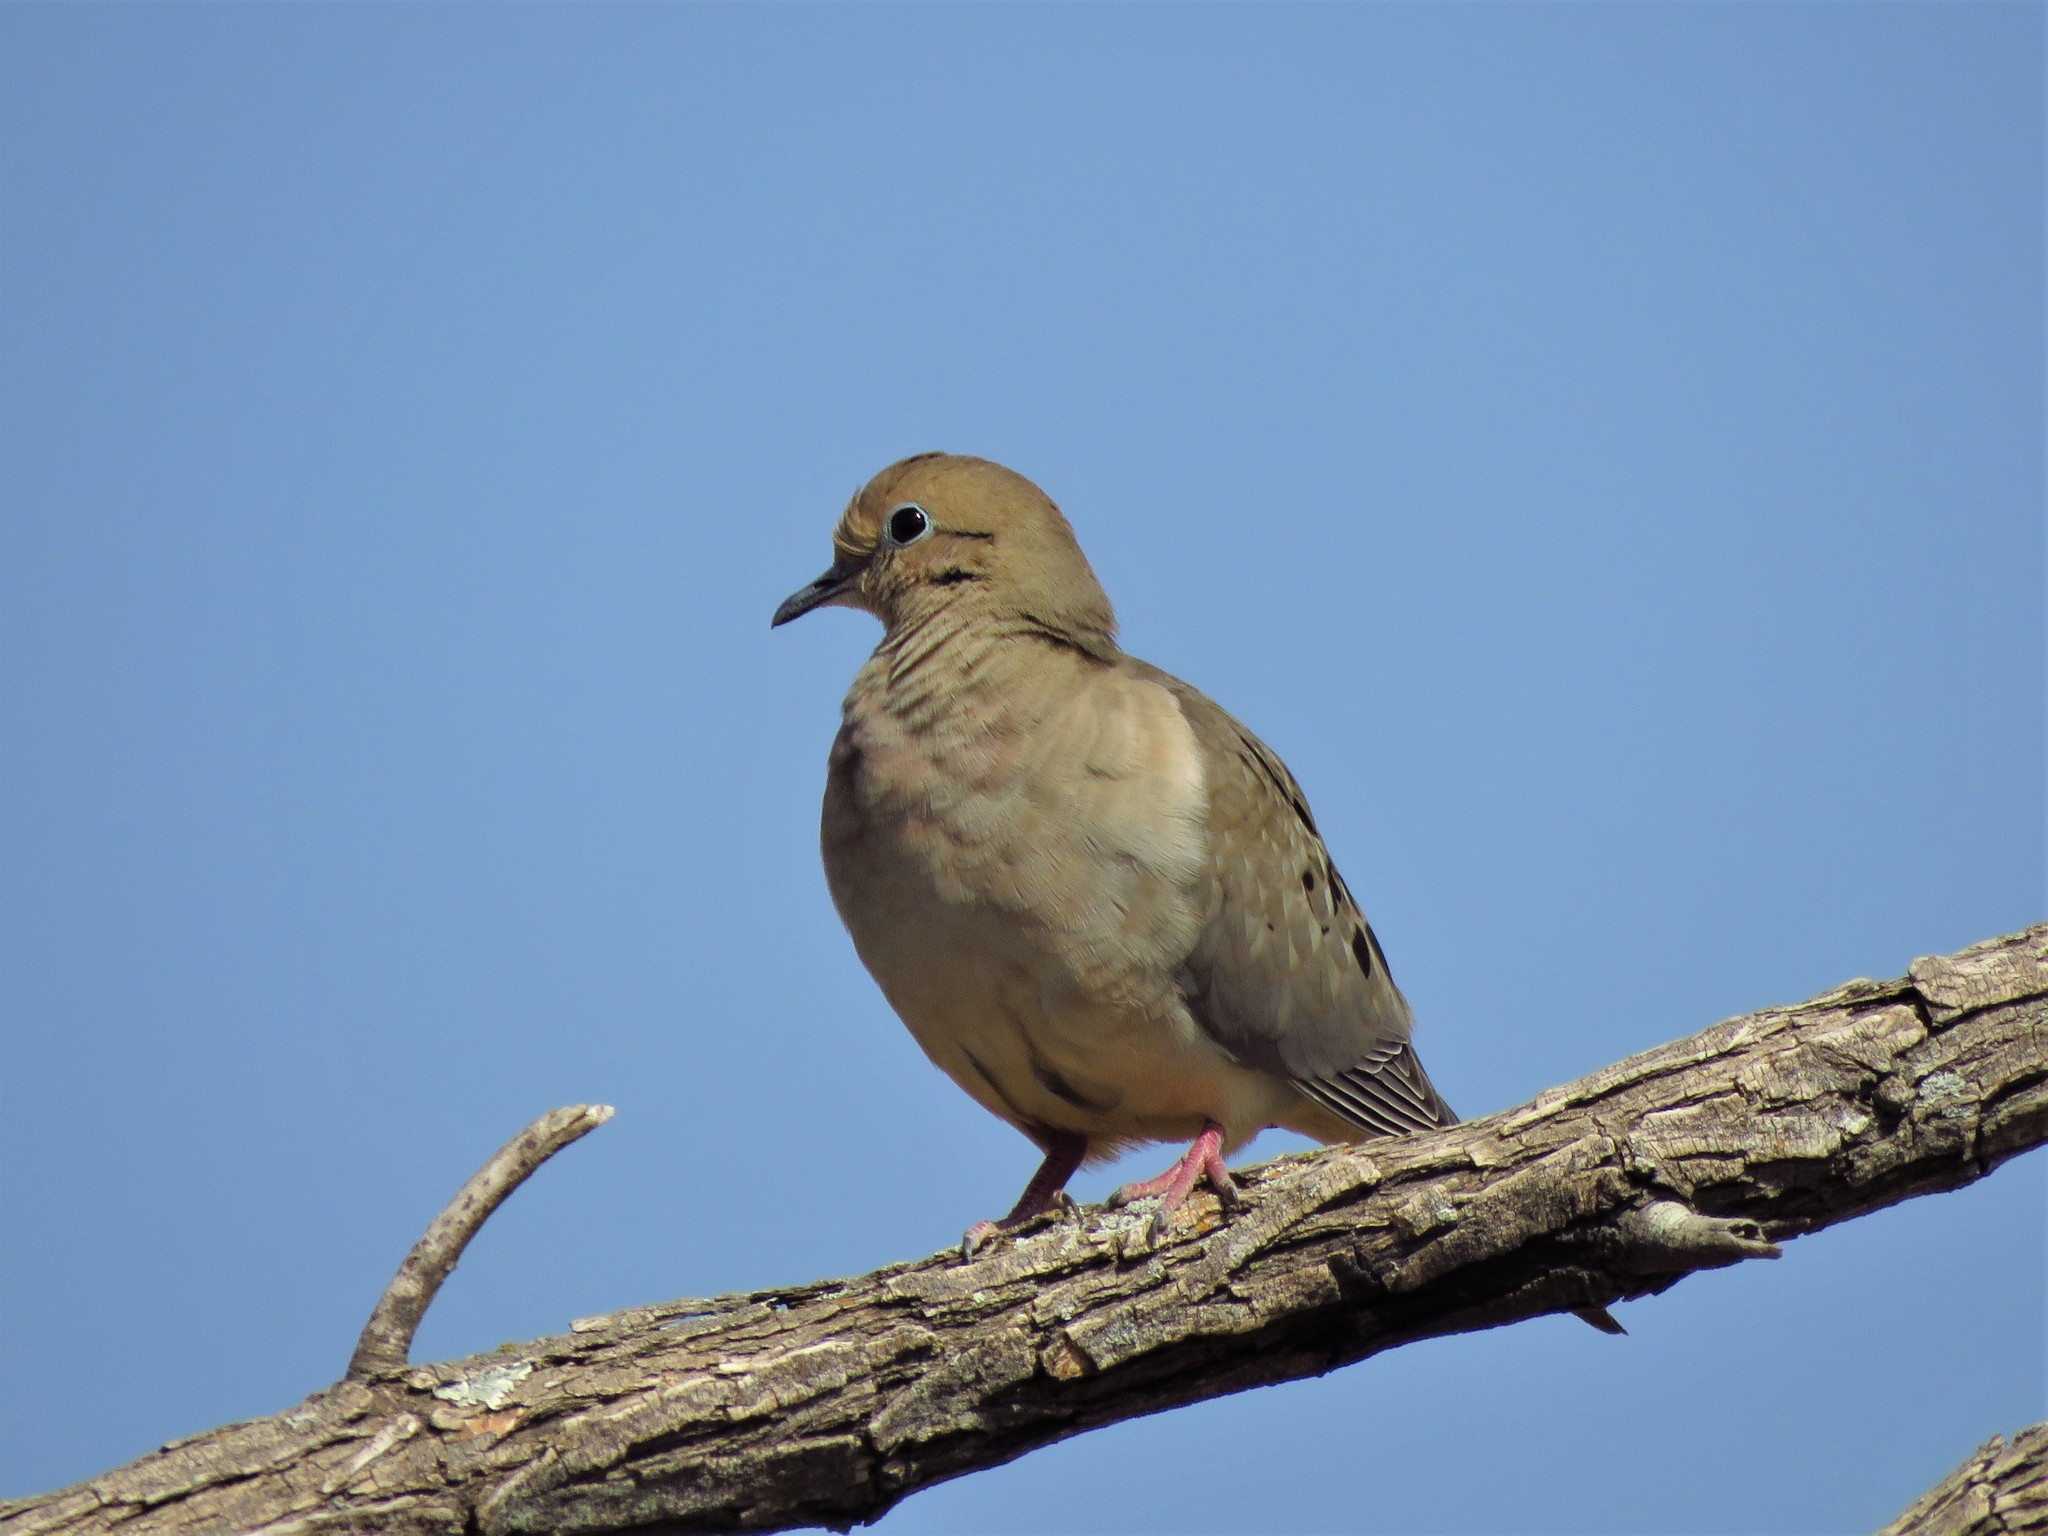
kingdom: Animalia
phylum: Chordata
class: Aves
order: Columbiformes
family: Columbidae
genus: Zenaida
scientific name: Zenaida macroura
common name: Mourning dove
